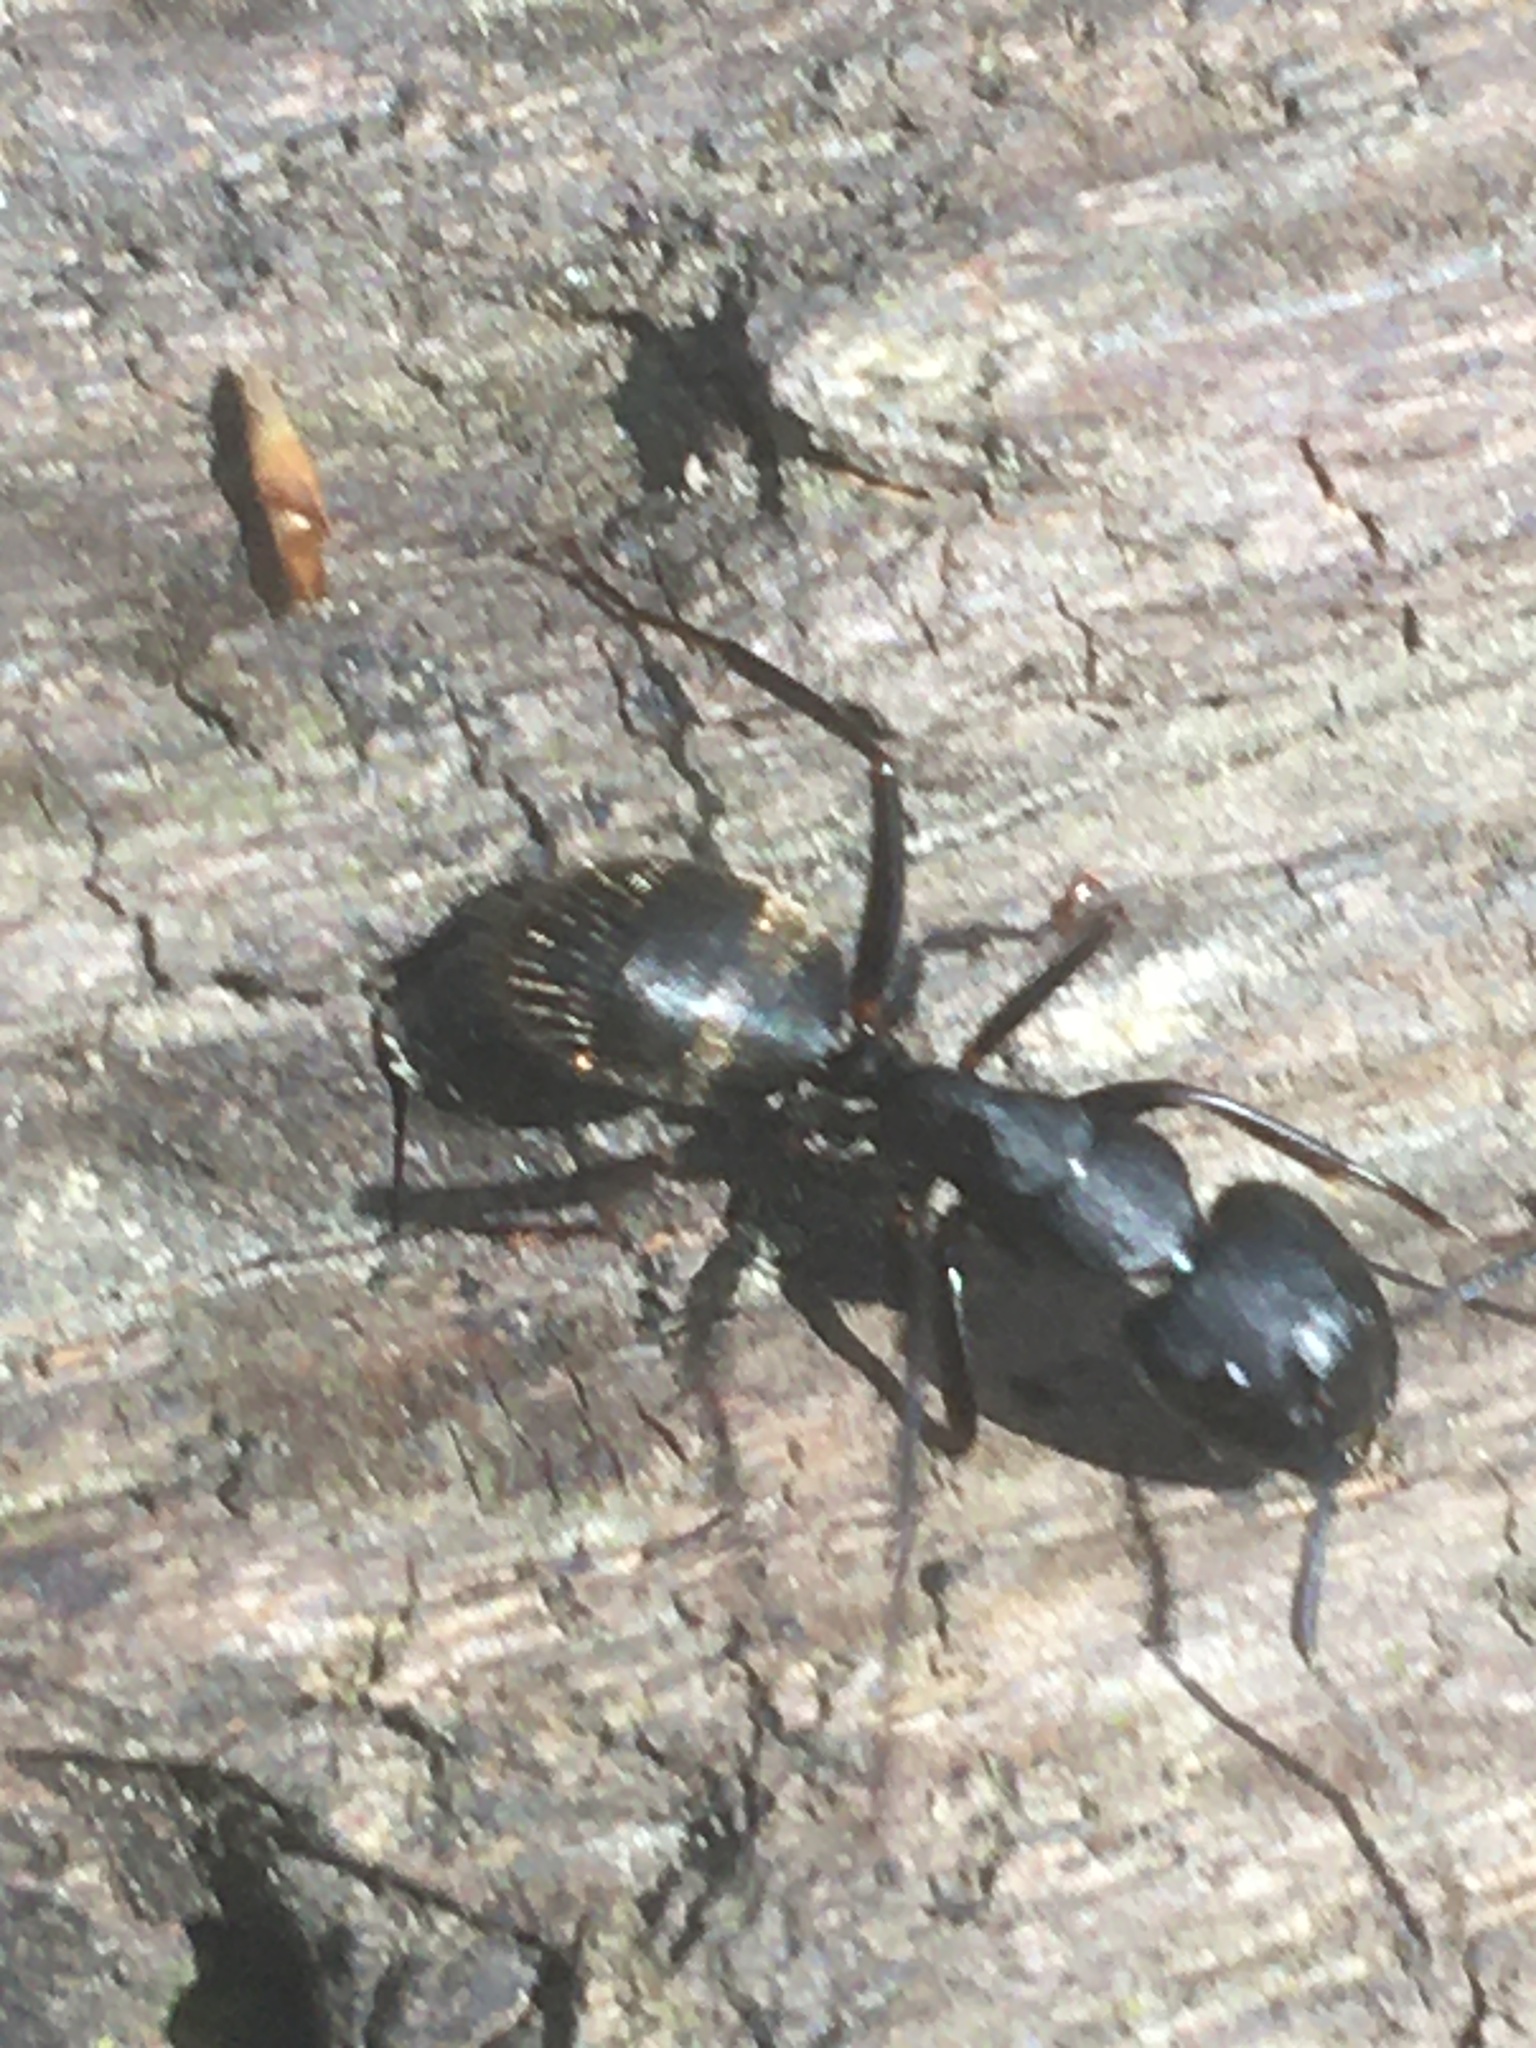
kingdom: Animalia
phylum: Arthropoda
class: Insecta
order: Hymenoptera
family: Formicidae
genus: Camponotus
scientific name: Camponotus pennsylvanicus
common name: Black carpenter ant
